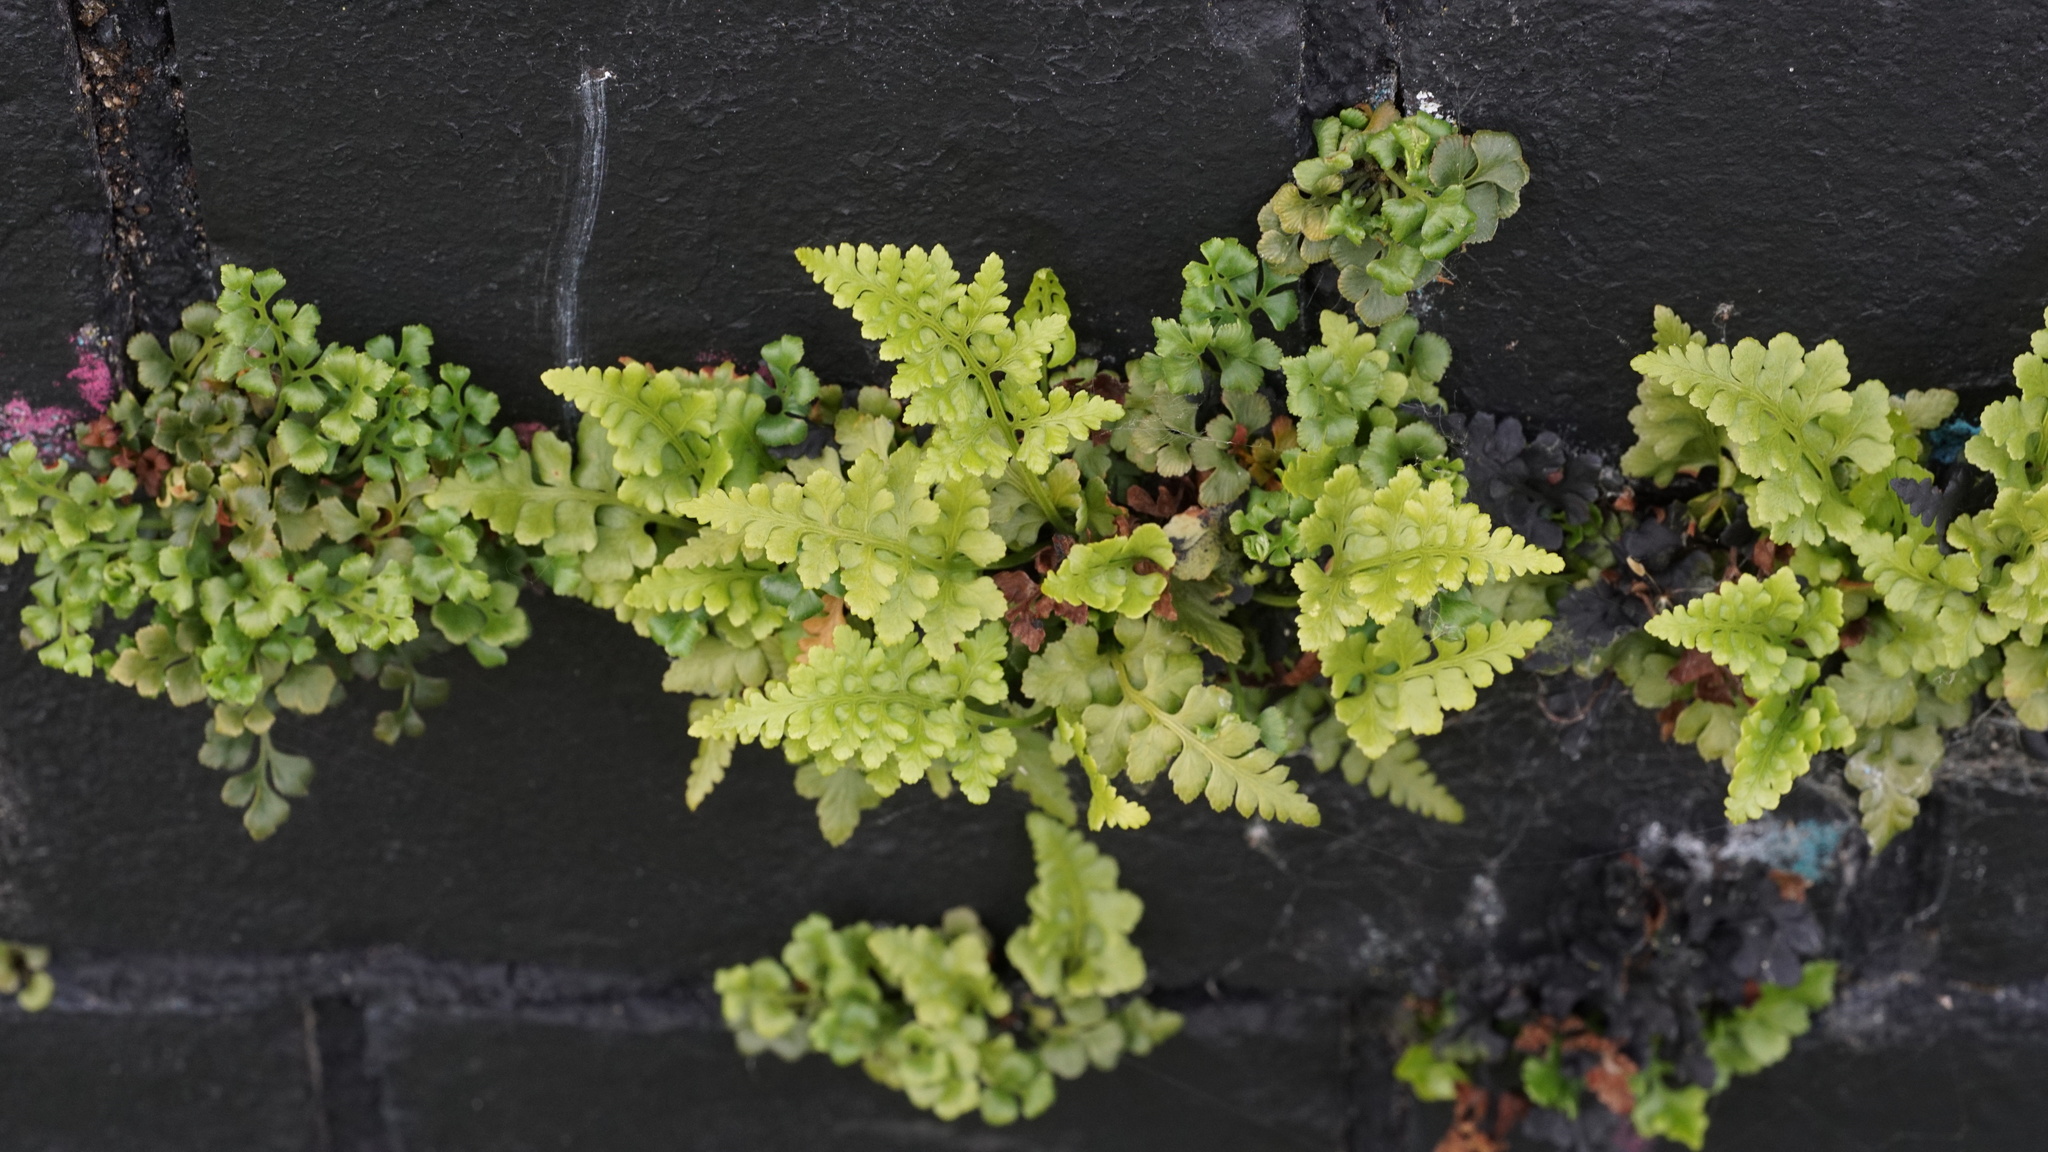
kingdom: Plantae
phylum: Tracheophyta
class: Polypodiopsida
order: Polypodiales
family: Aspleniaceae
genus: Asplenium
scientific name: Asplenium adiantum-nigrum
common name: Black spleenwort
